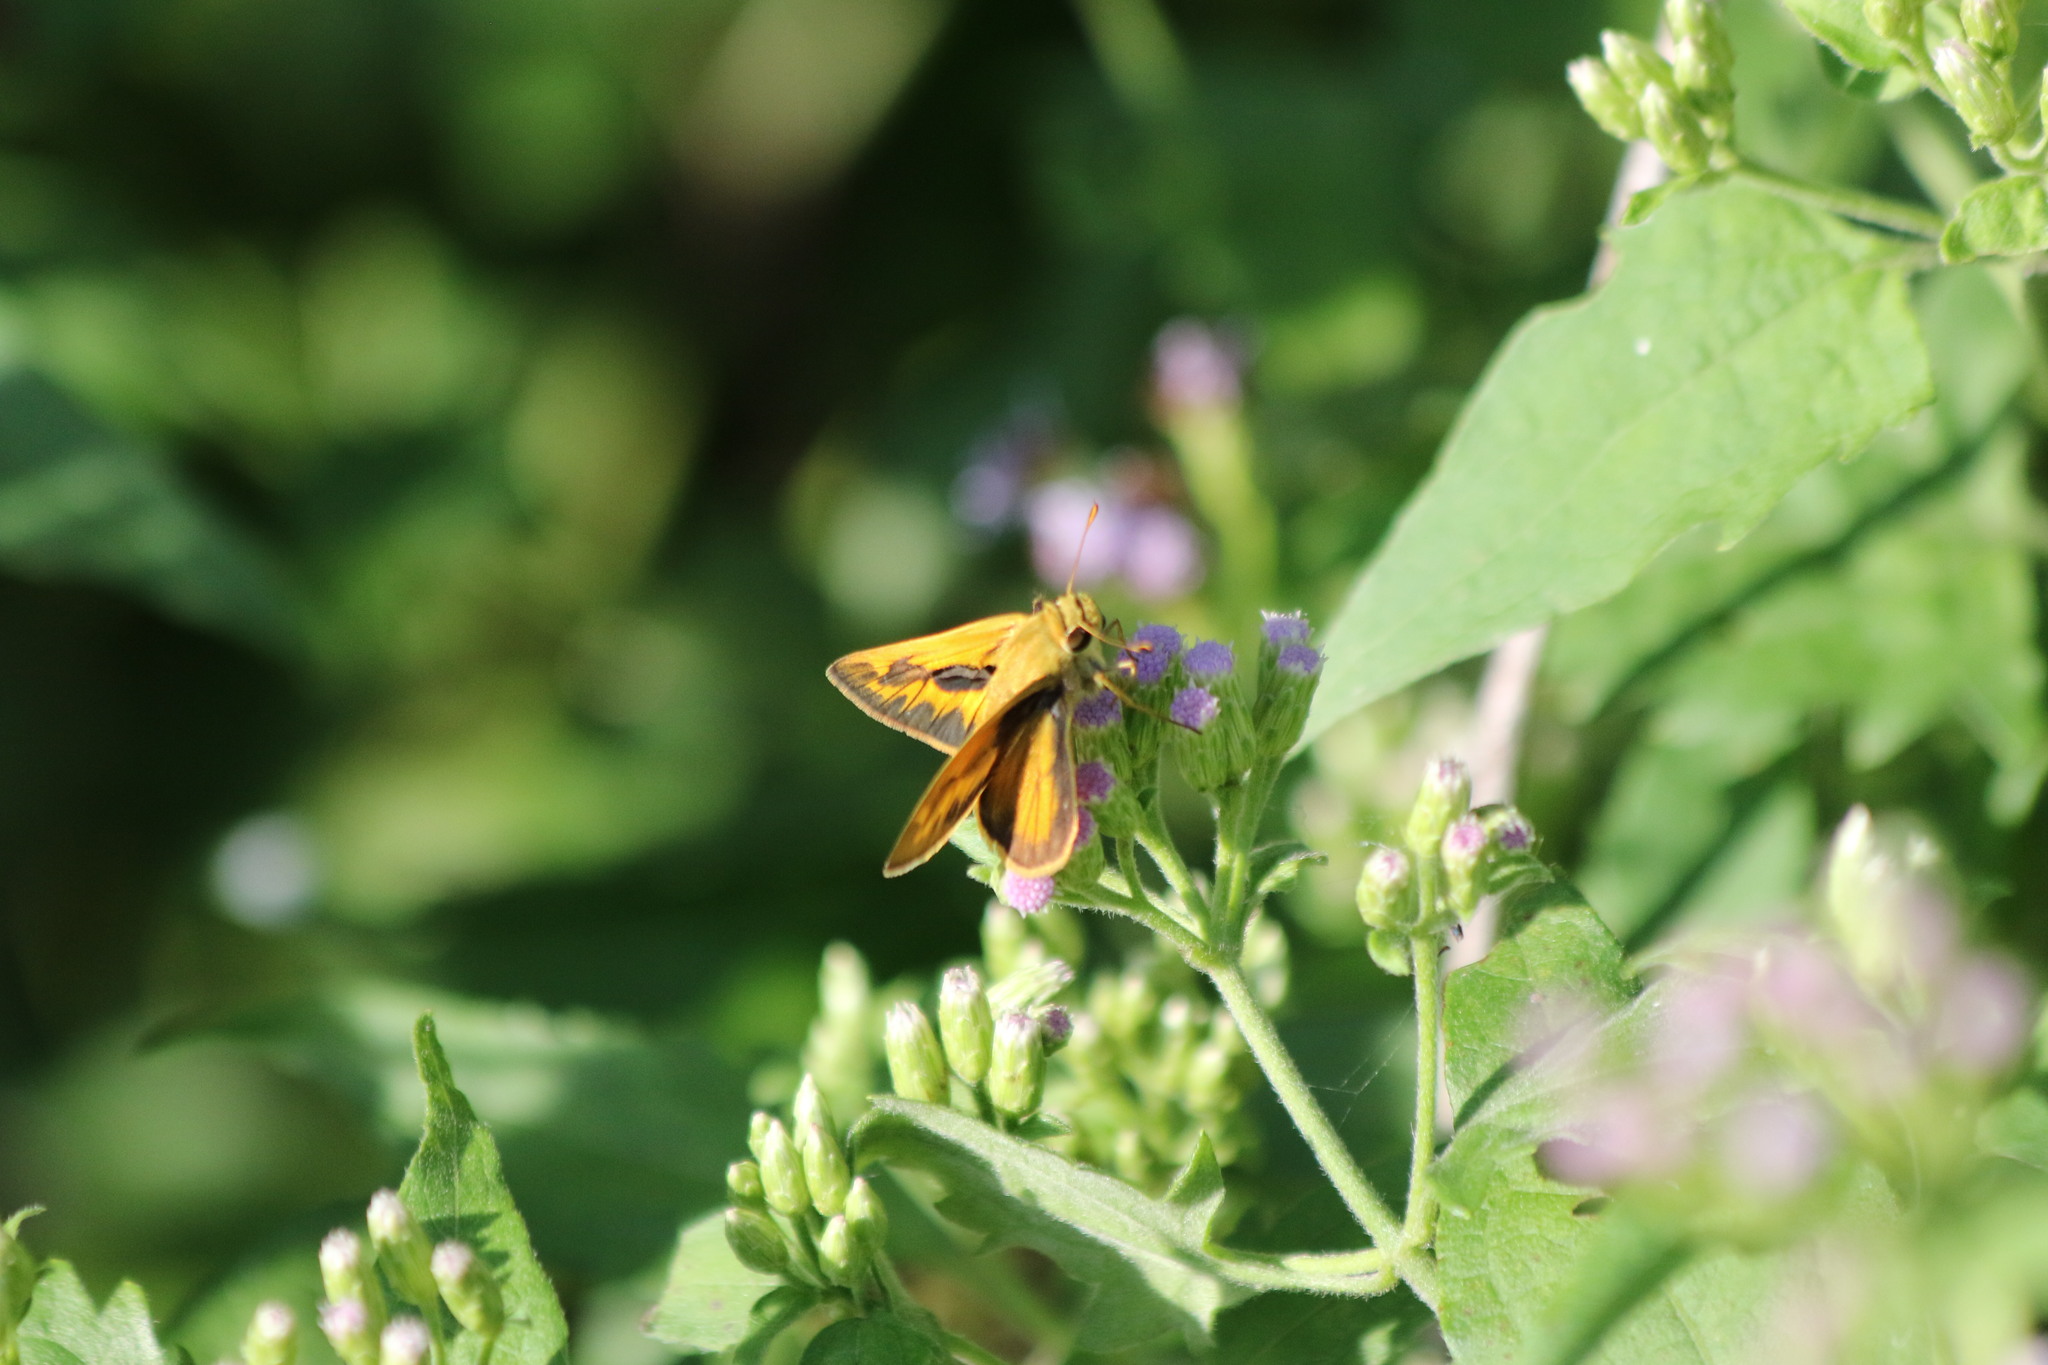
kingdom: Animalia
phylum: Arthropoda
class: Insecta
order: Lepidoptera
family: Hesperiidae
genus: Hylephila
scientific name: Hylephila phyleus
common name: Fiery skipper
